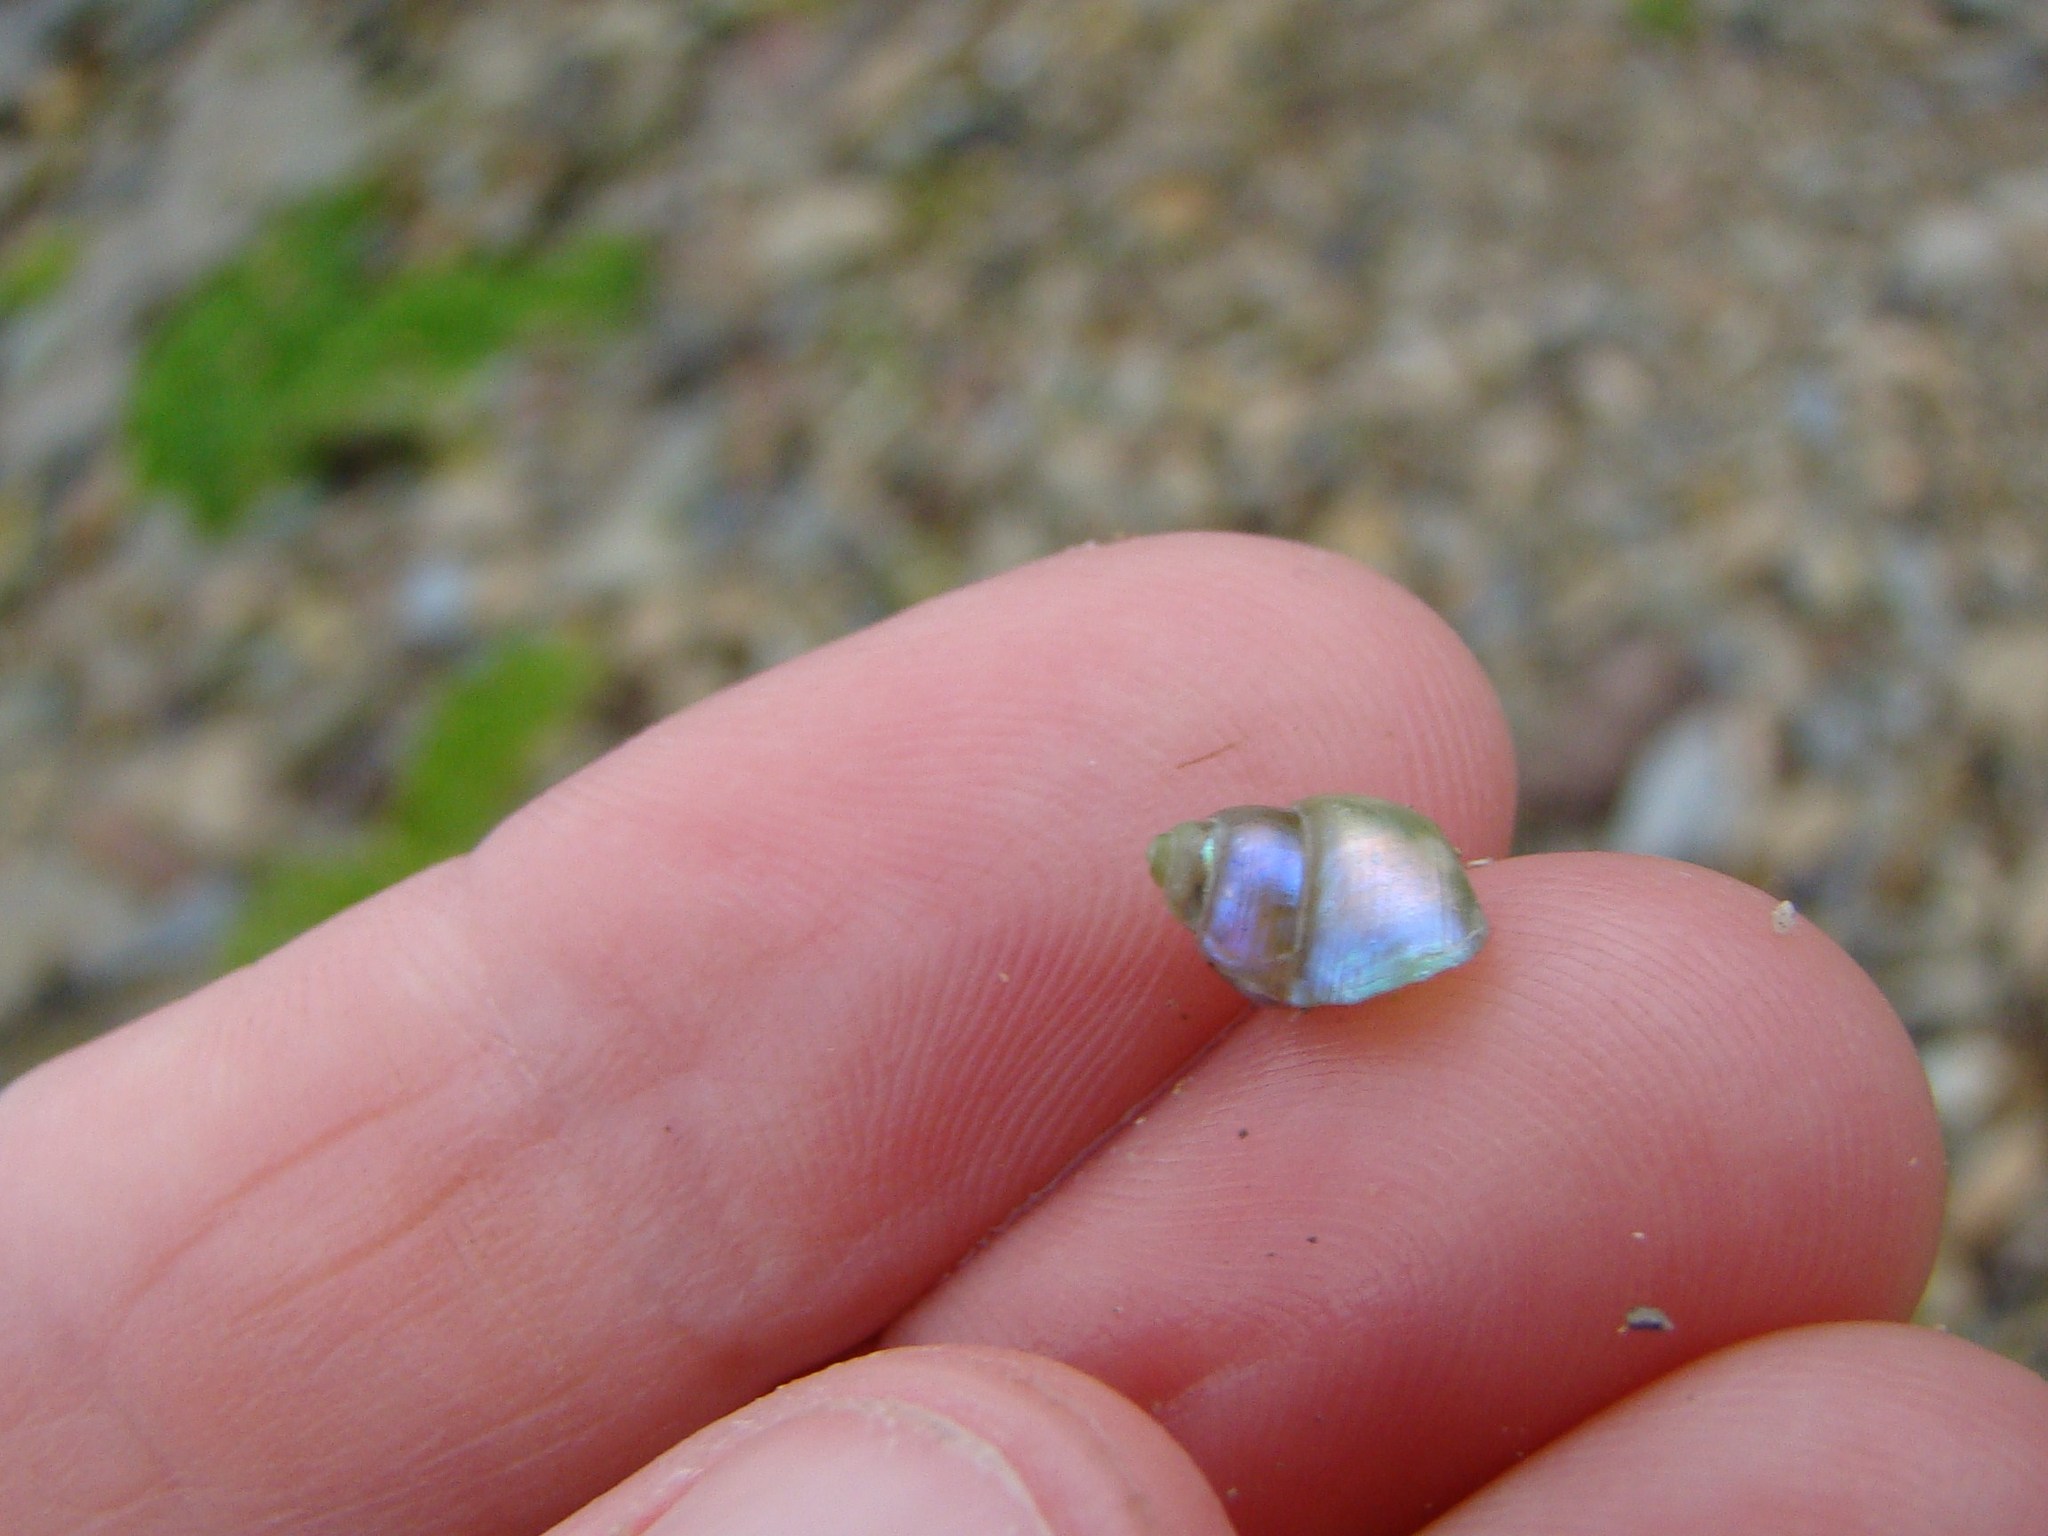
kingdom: Animalia
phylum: Mollusca
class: Gastropoda
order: Trochida
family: Trochidae
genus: Cantharidus
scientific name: Cantharidus dilatatus
